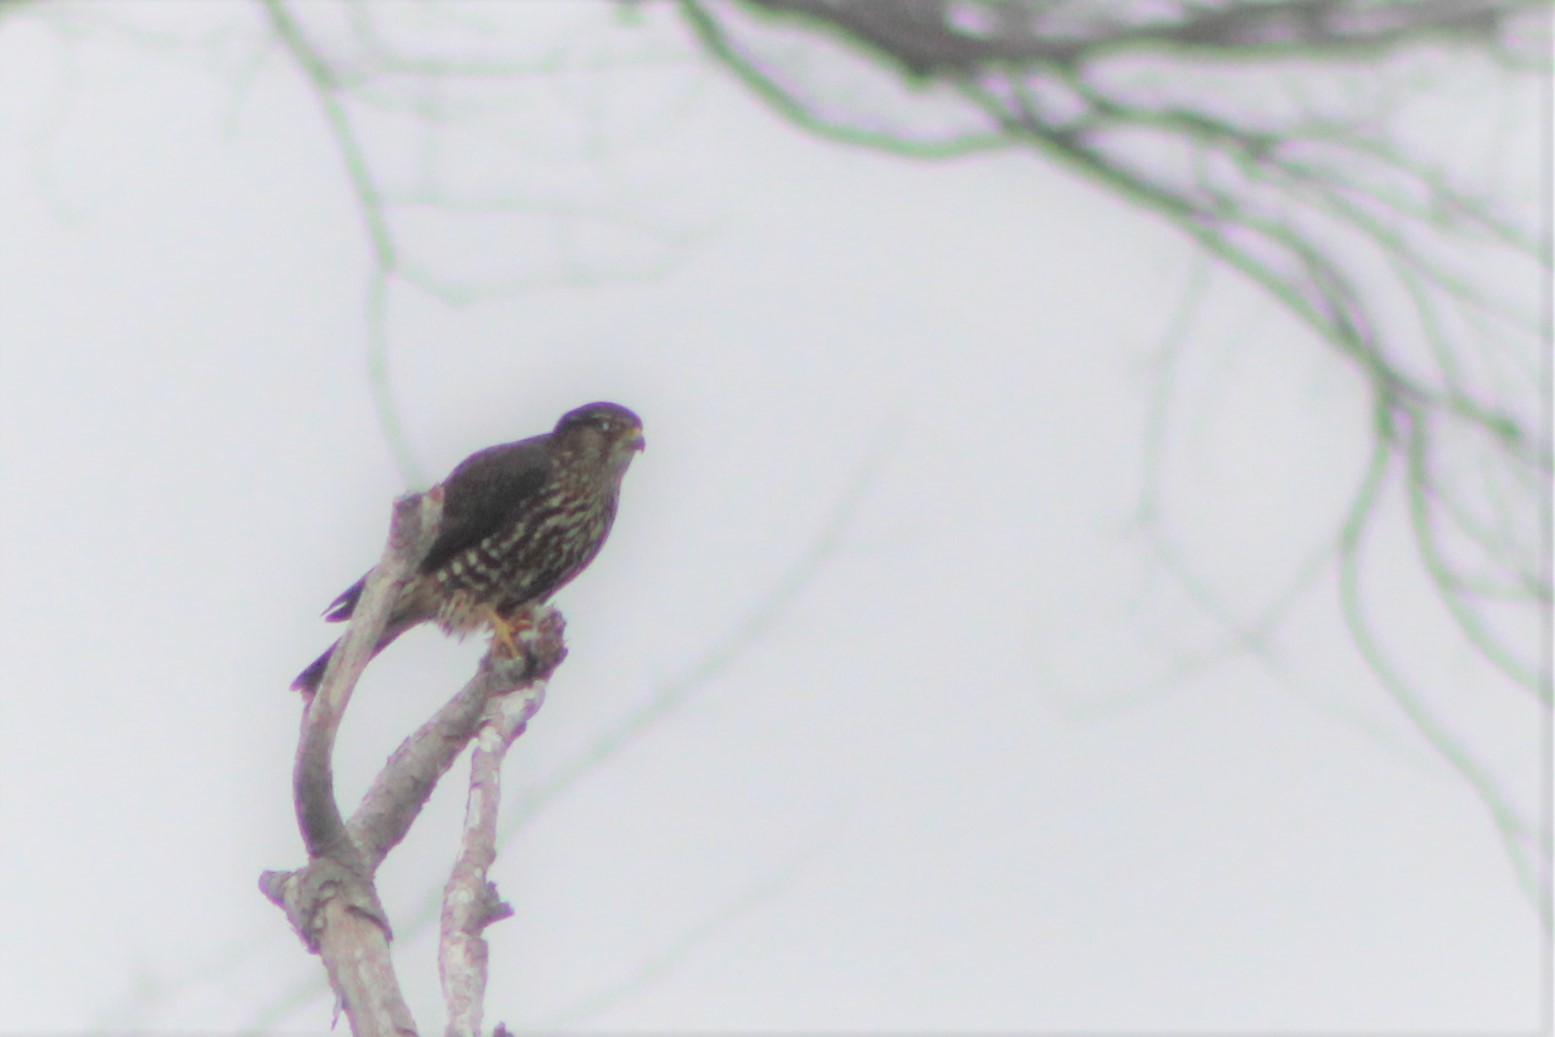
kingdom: Animalia
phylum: Chordata
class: Aves
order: Falconiformes
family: Falconidae
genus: Falco
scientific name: Falco columbarius
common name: Merlin
